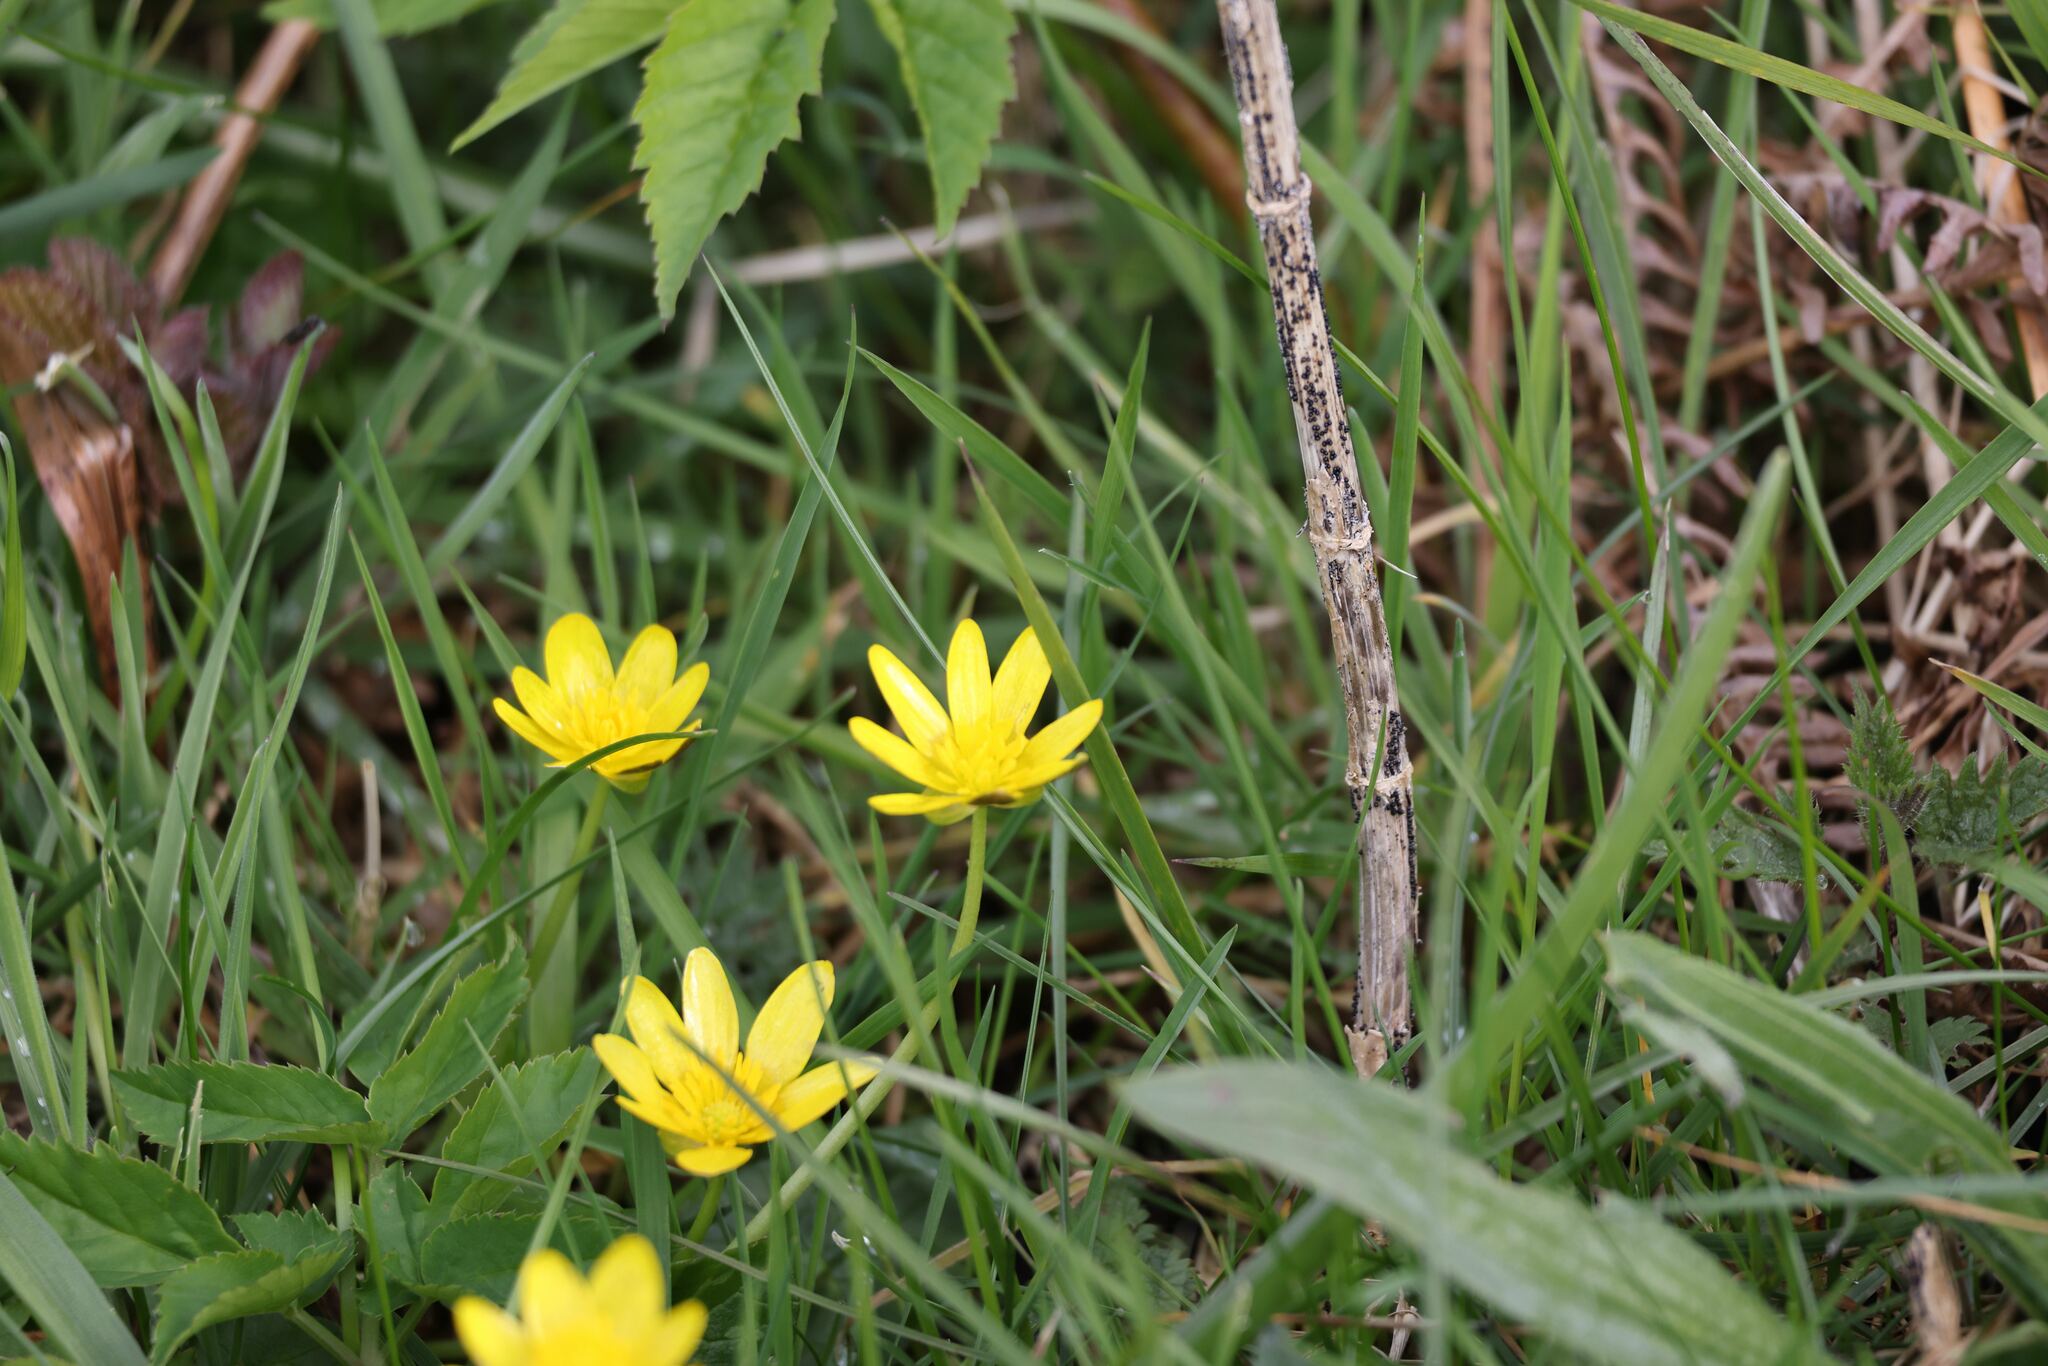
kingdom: Plantae
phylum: Tracheophyta
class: Magnoliopsida
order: Ranunculales
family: Ranunculaceae
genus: Ficaria
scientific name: Ficaria verna
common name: Lesser celandine
